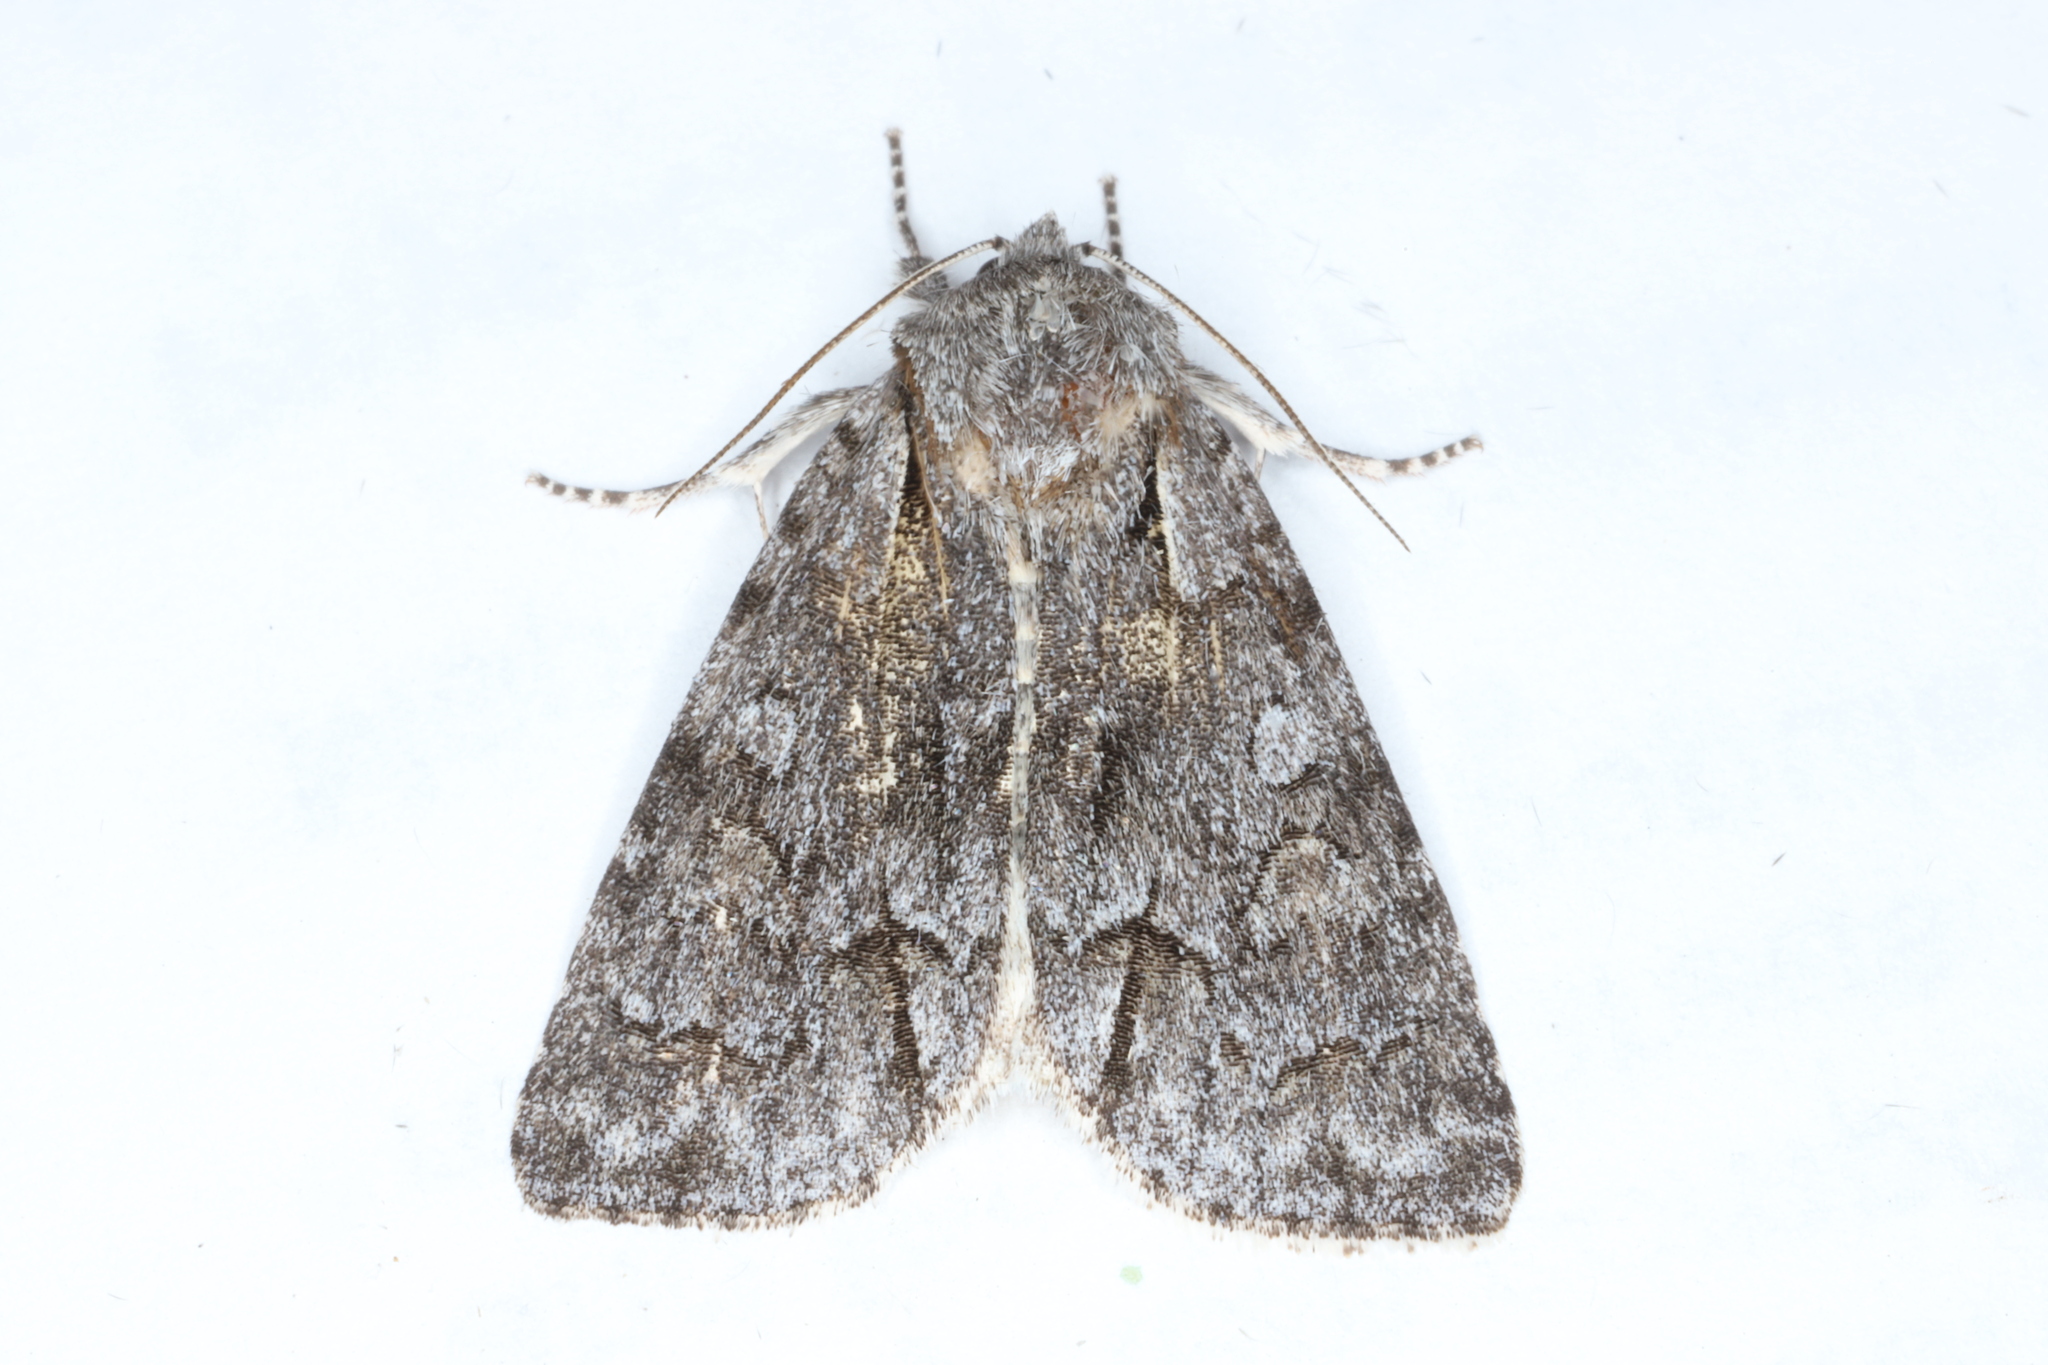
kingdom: Animalia
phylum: Arthropoda
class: Insecta
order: Lepidoptera
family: Noctuidae
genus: Acronicta
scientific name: Acronicta grisea
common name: Gray dagger
